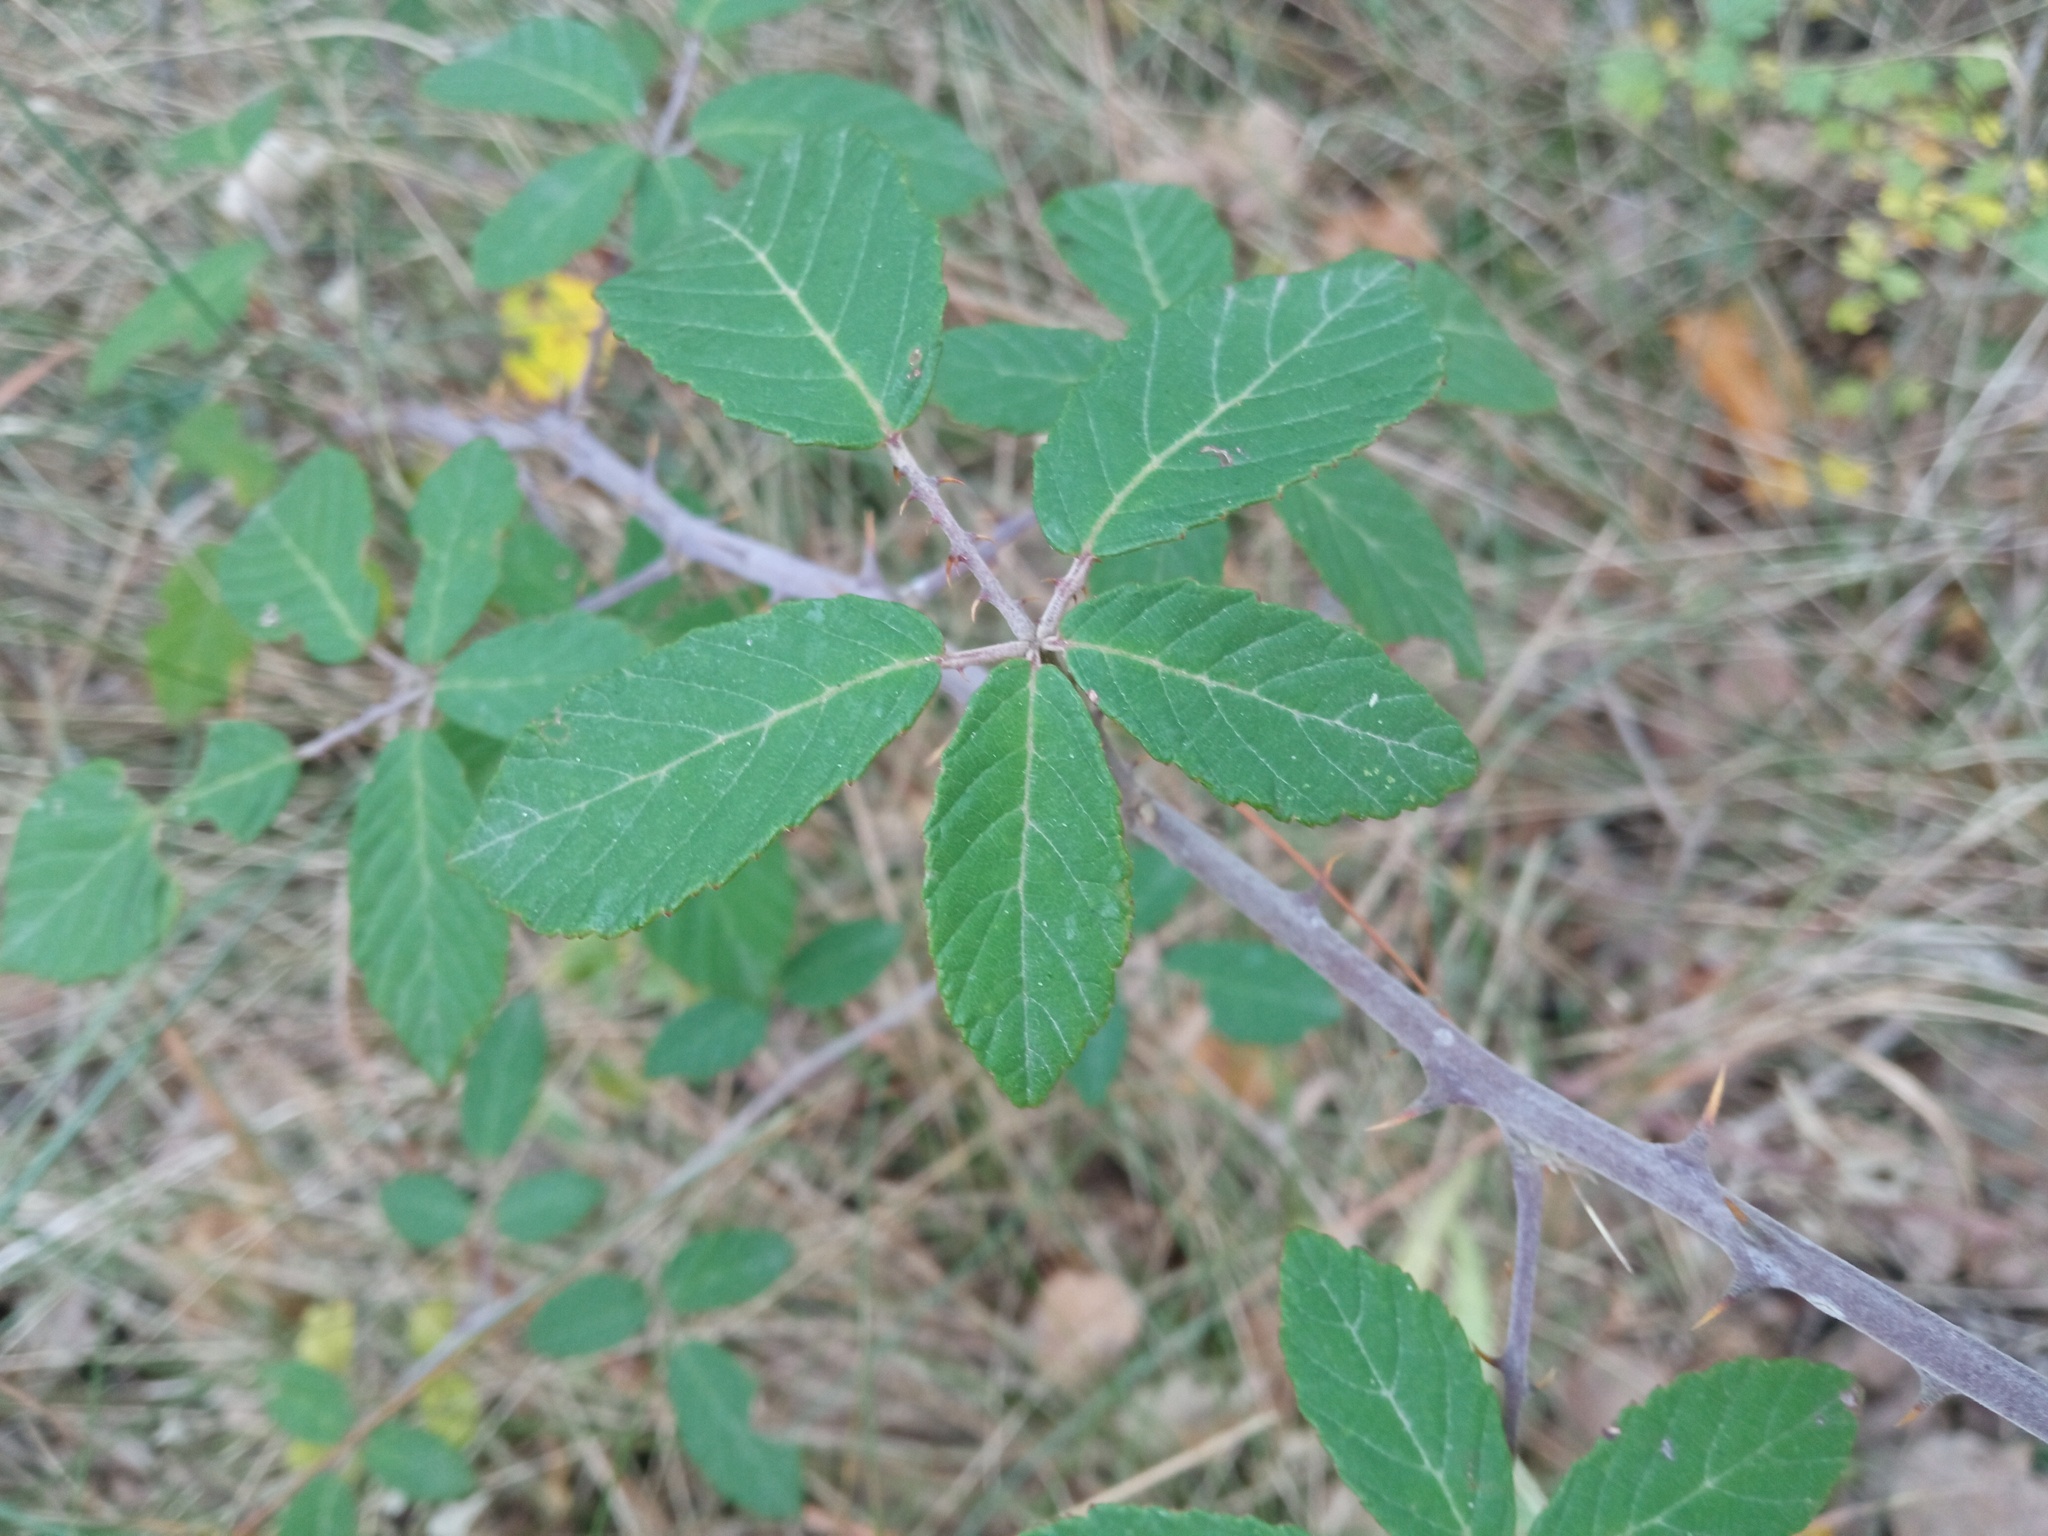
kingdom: Plantae
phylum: Tracheophyta
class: Magnoliopsida
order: Rosales
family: Rosaceae
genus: Rubus
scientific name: Rubus ulmifolius
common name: Elmleaf blackberry
